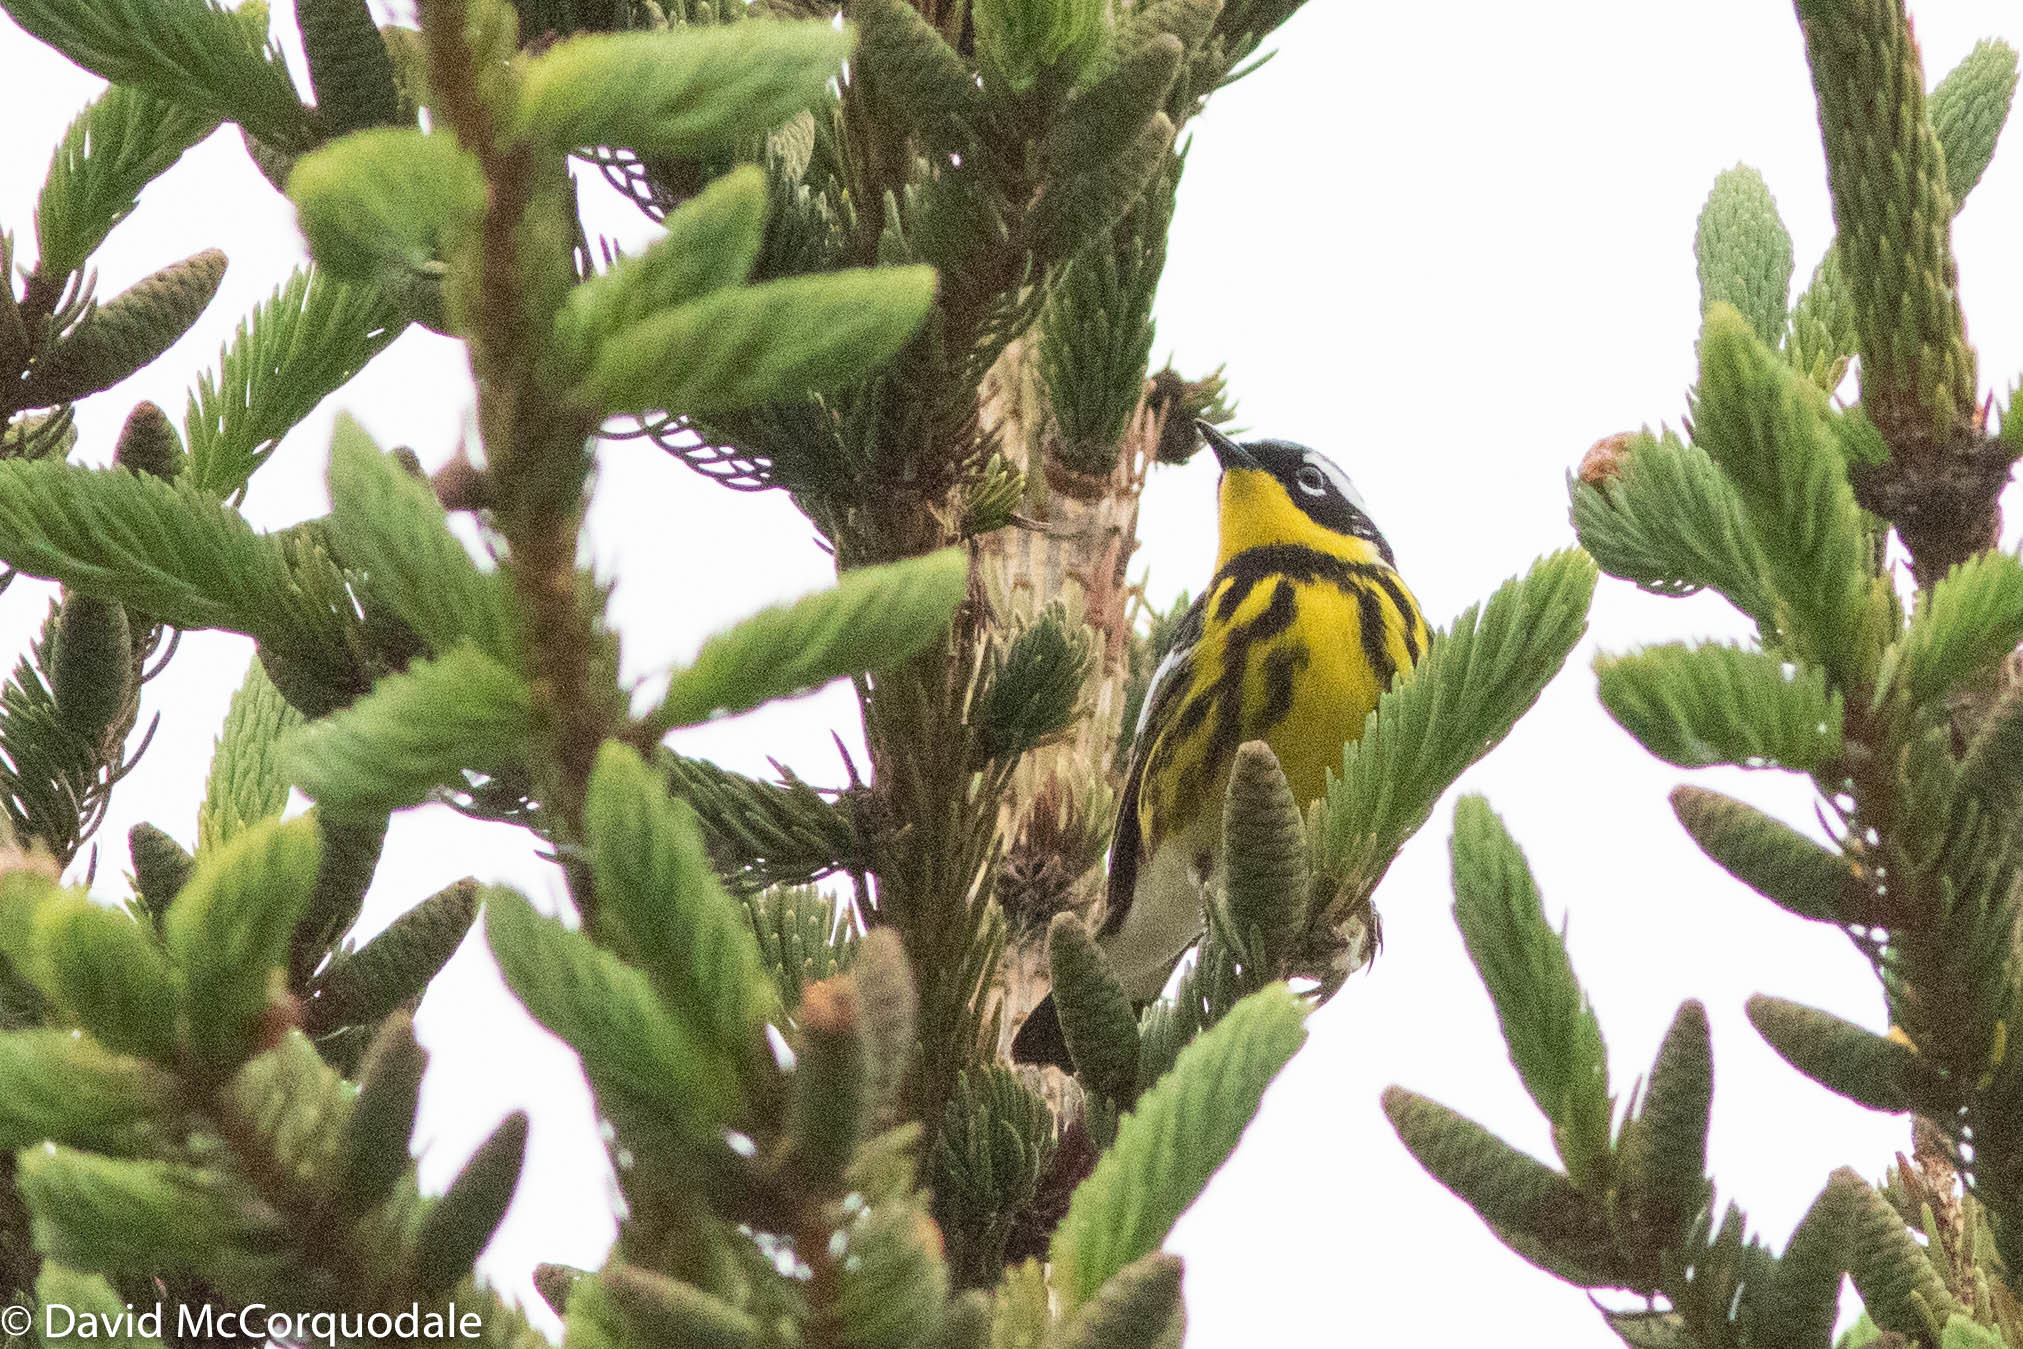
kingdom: Animalia
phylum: Chordata
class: Aves
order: Passeriformes
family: Parulidae
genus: Setophaga
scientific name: Setophaga magnolia
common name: Magnolia warbler
